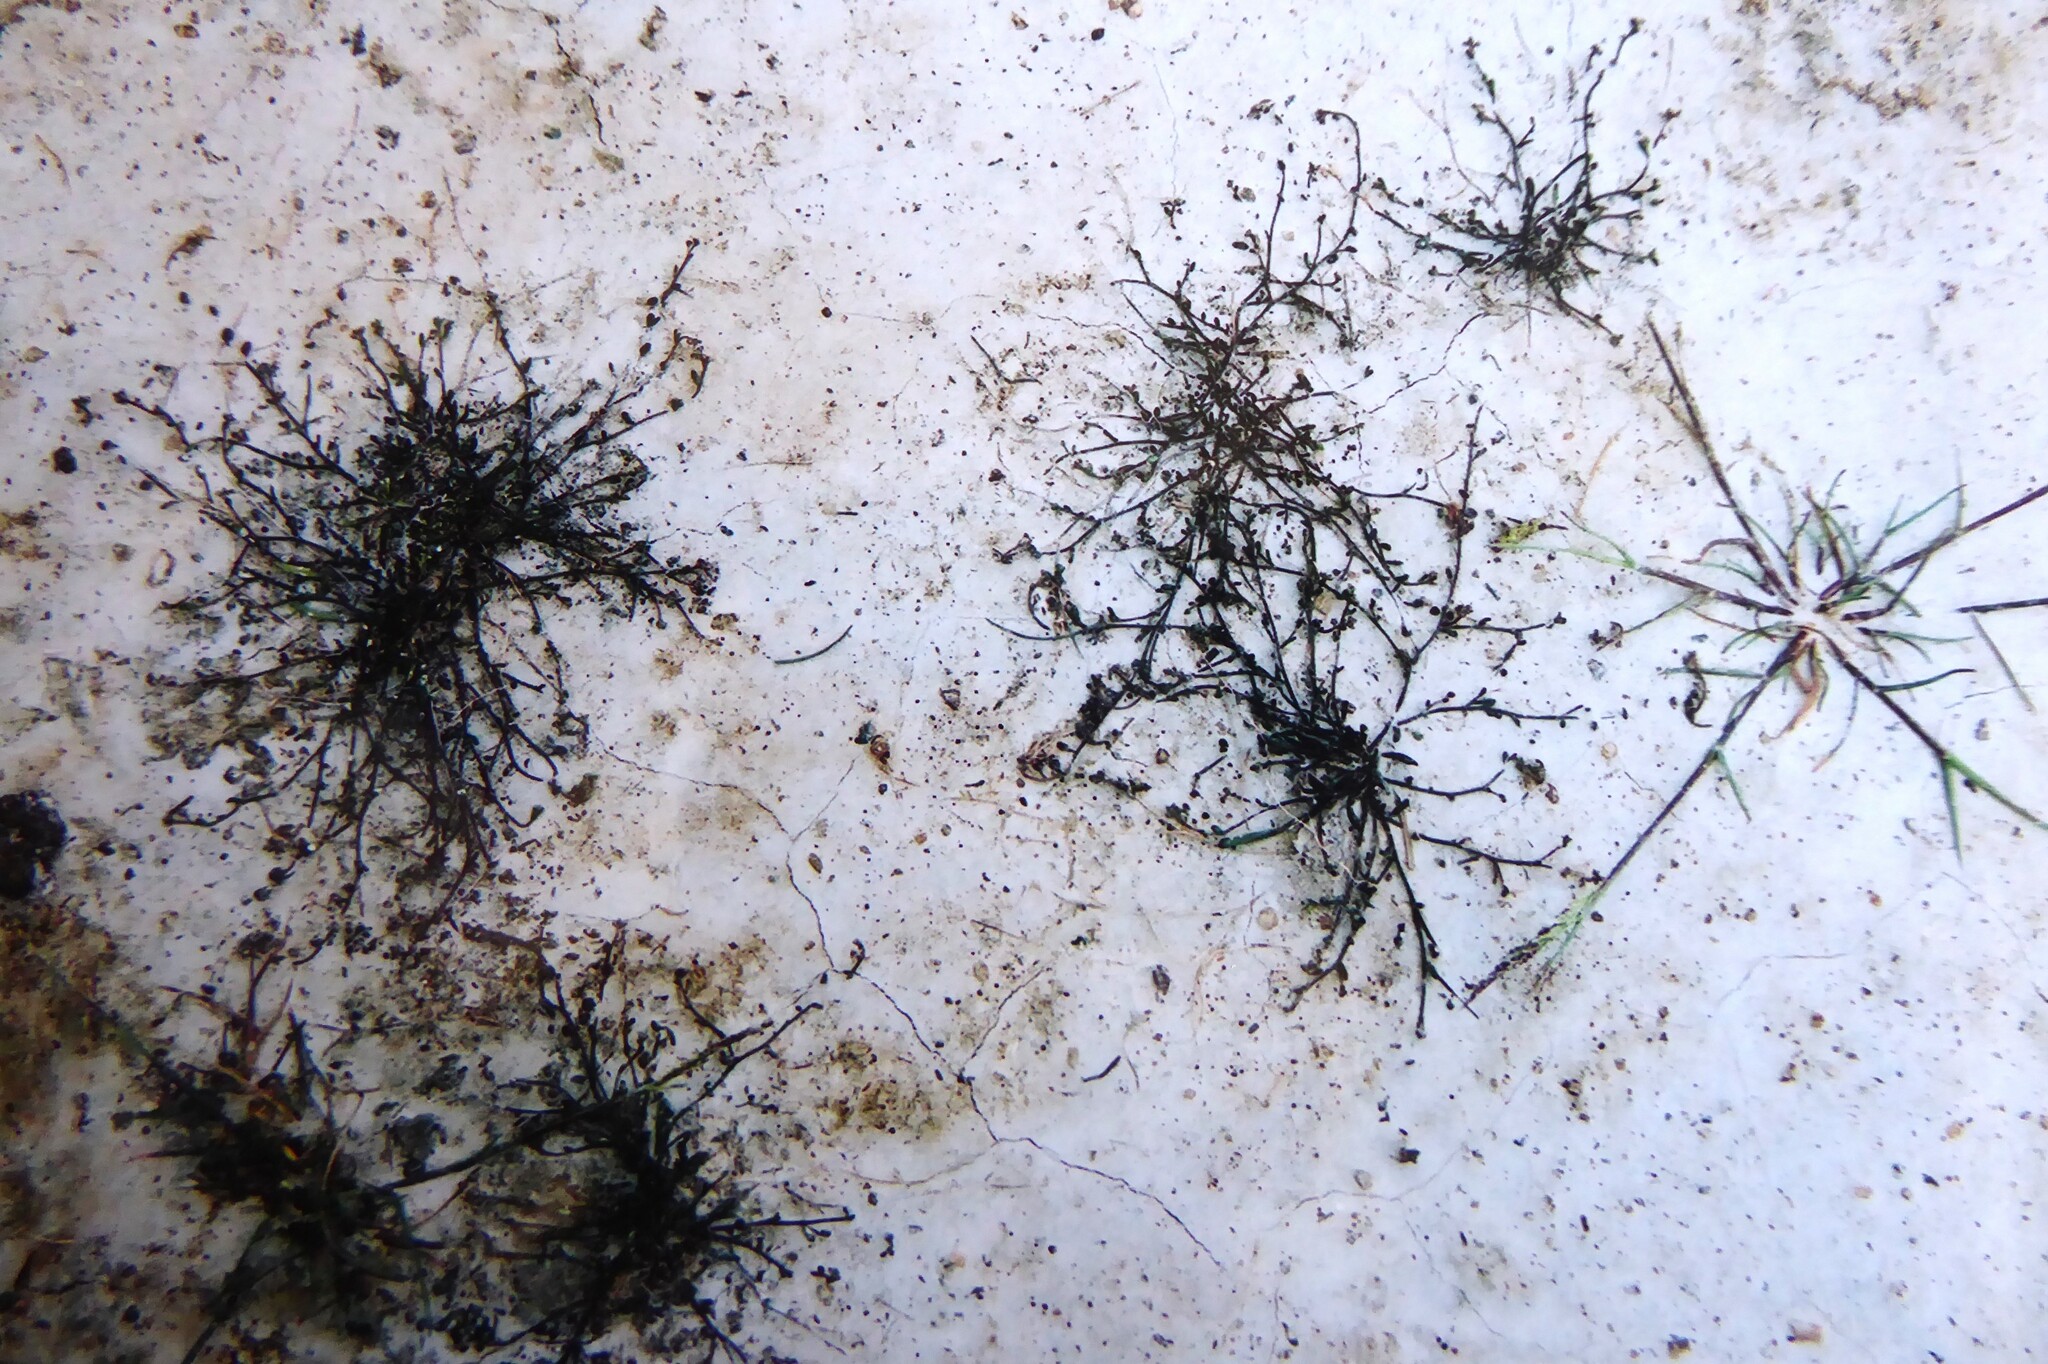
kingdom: Plantae
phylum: Tracheophyta
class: Magnoliopsida
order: Brassicales
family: Brassicaceae
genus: Lepidium
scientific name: Lepidium kirkii
